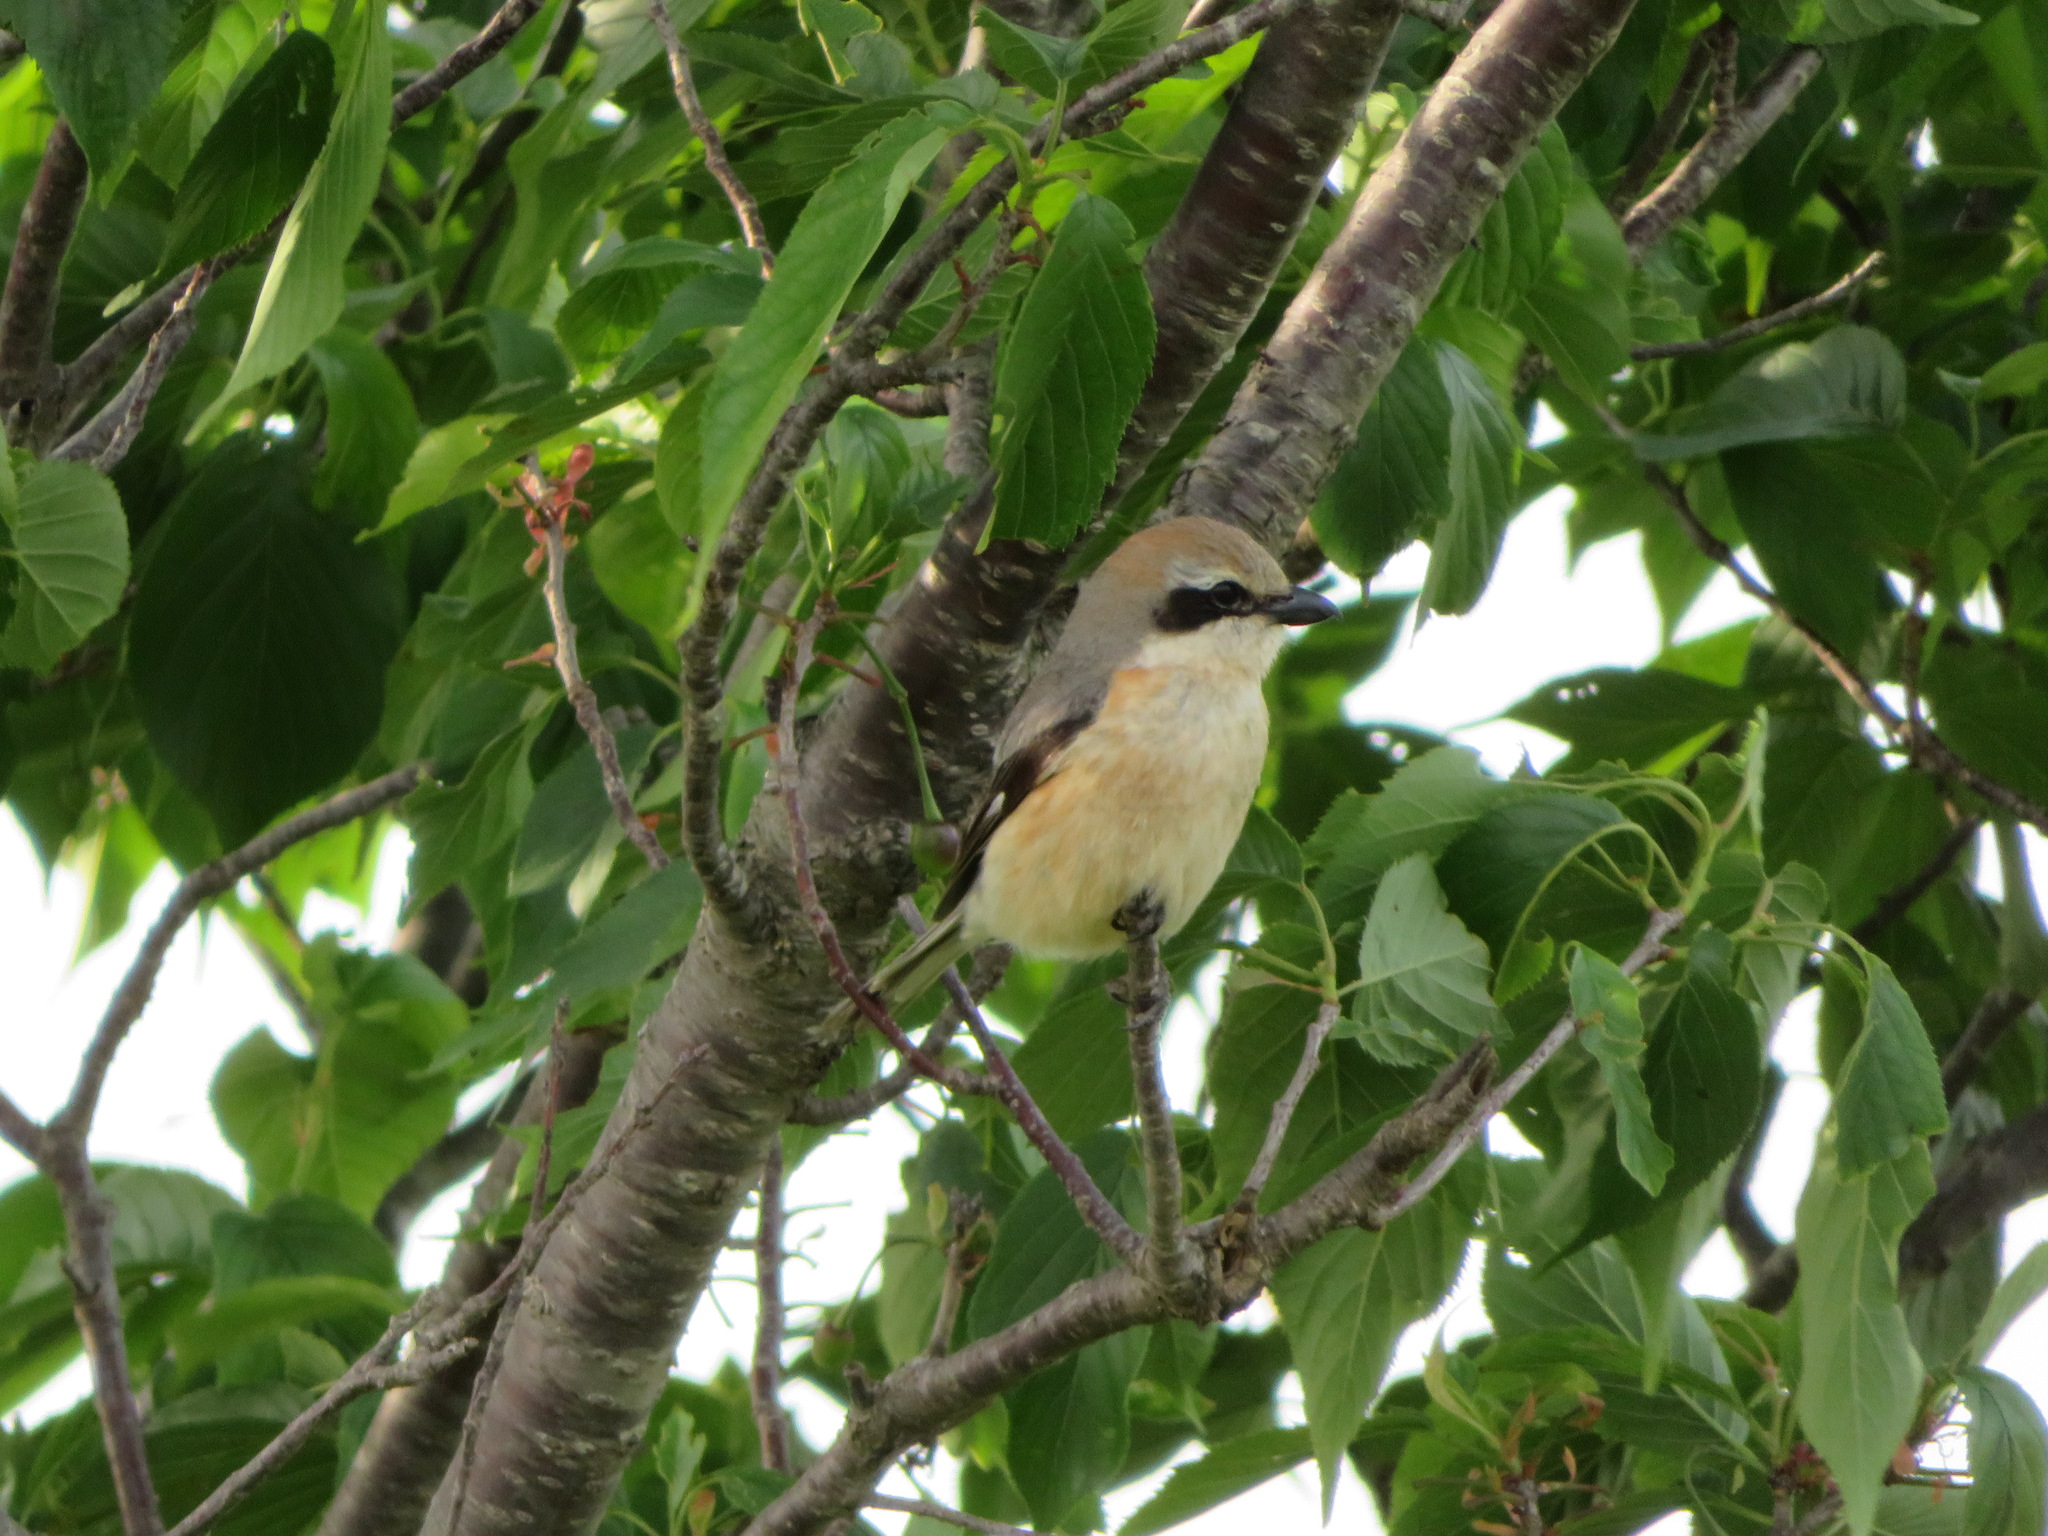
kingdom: Animalia
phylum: Chordata
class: Aves
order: Passeriformes
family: Laniidae
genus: Lanius
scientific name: Lanius bucephalus
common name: Bull-headed shrike
